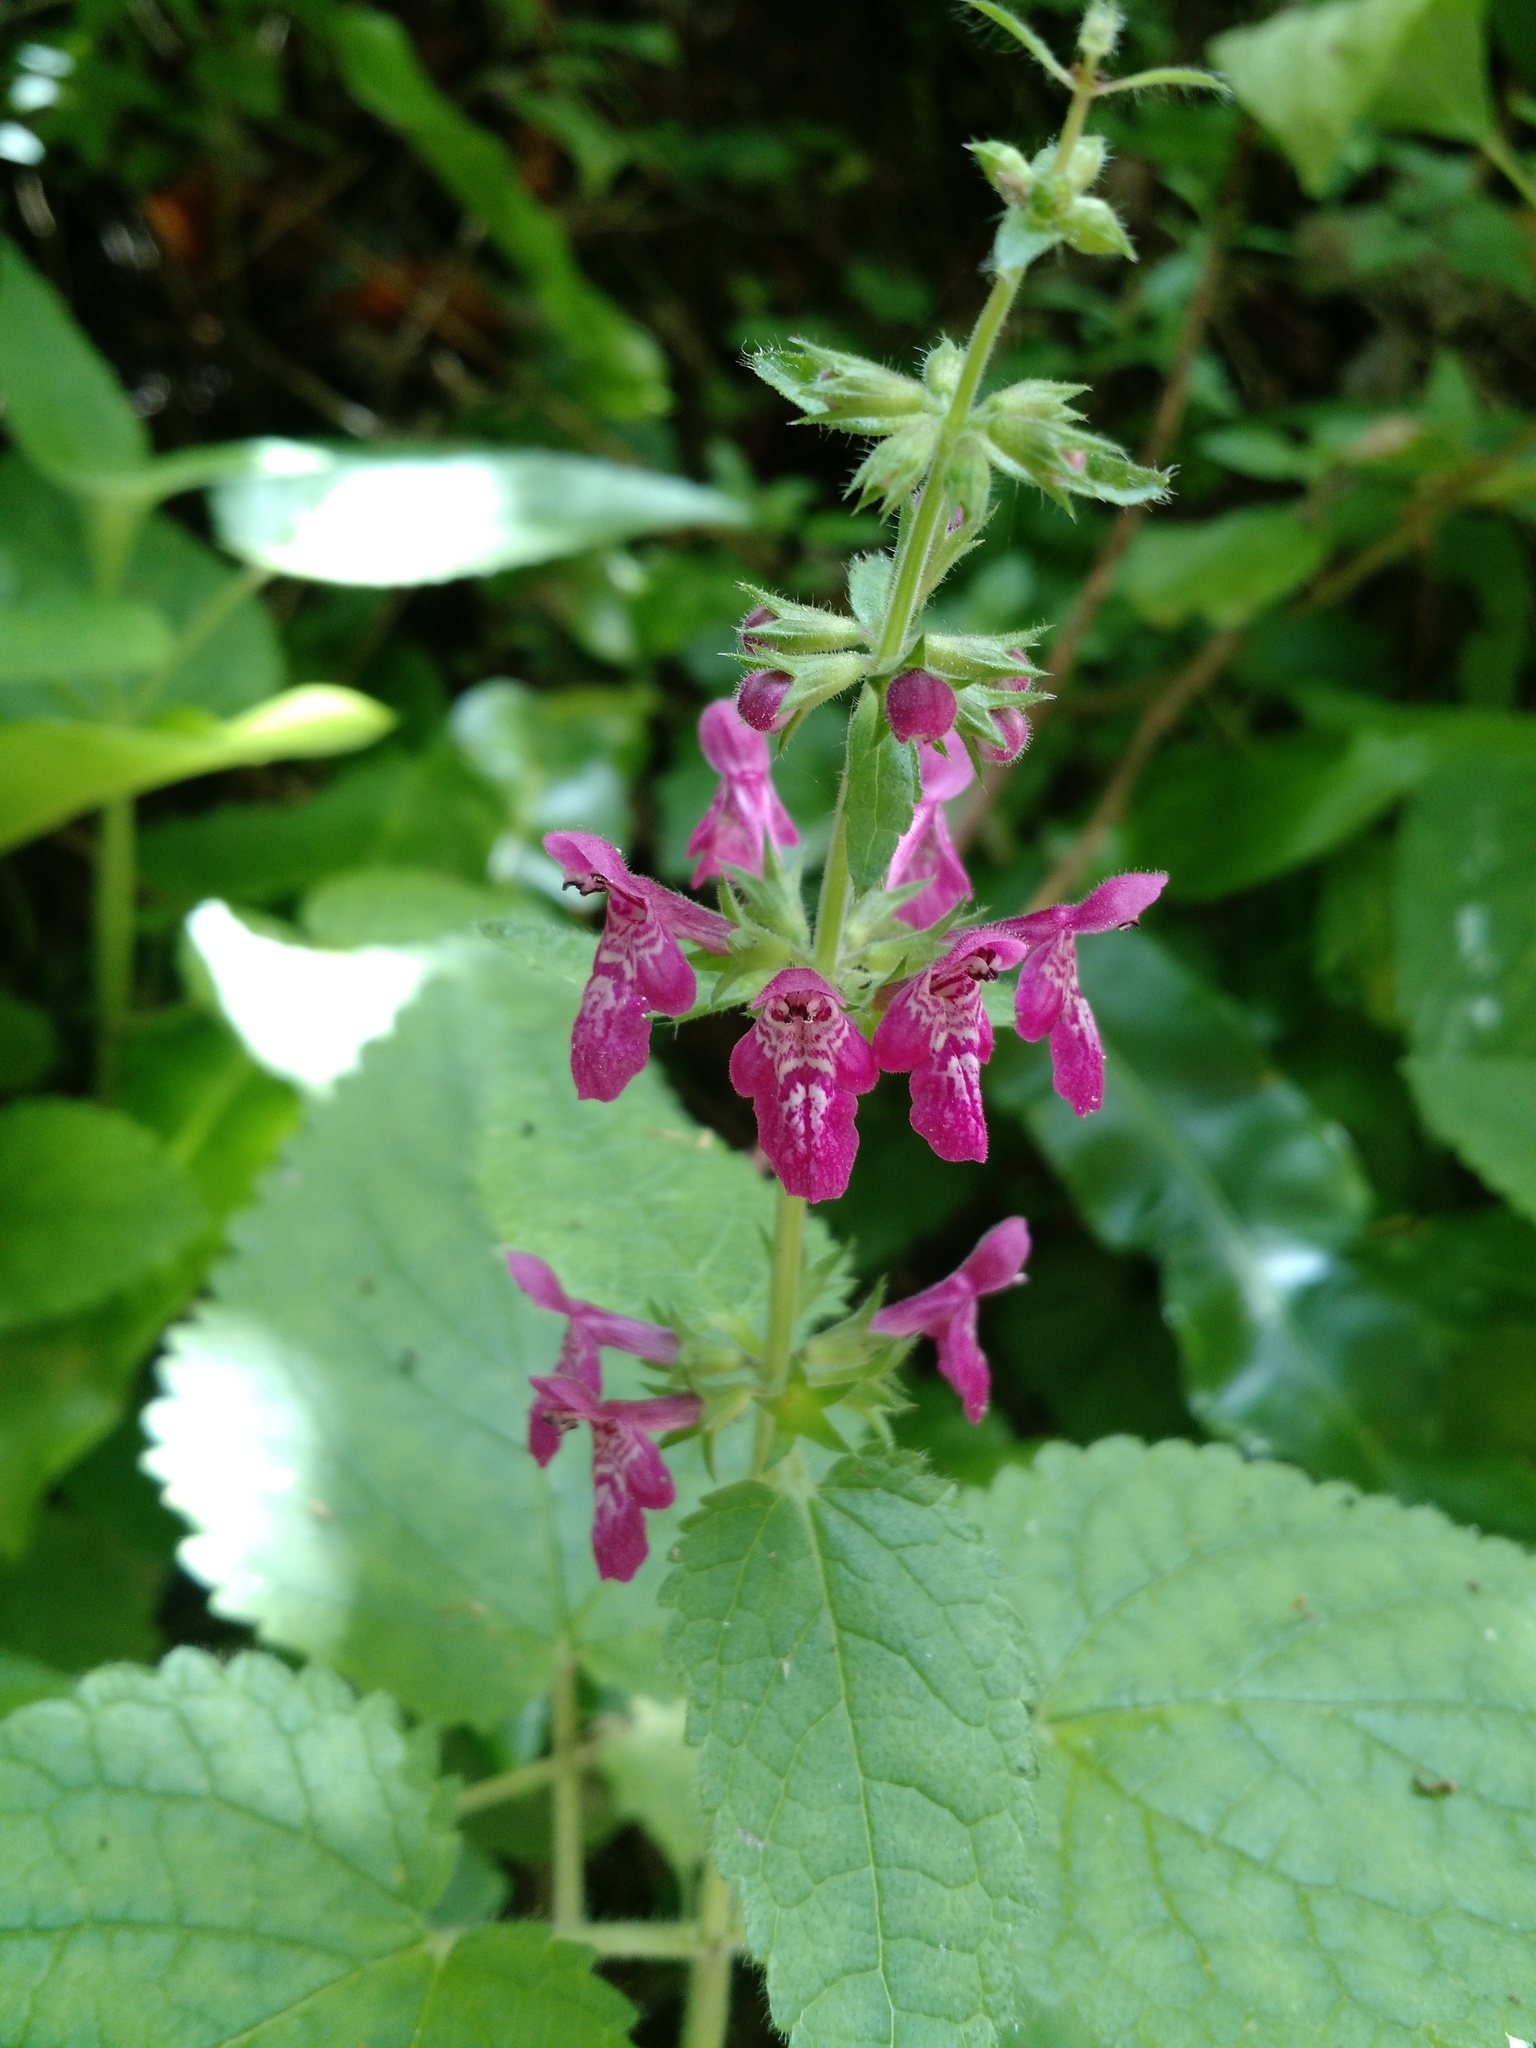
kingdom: Plantae
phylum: Tracheophyta
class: Magnoliopsida
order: Lamiales
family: Lamiaceae
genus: Stachys
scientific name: Stachys sylvatica
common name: Hedge woundwort
